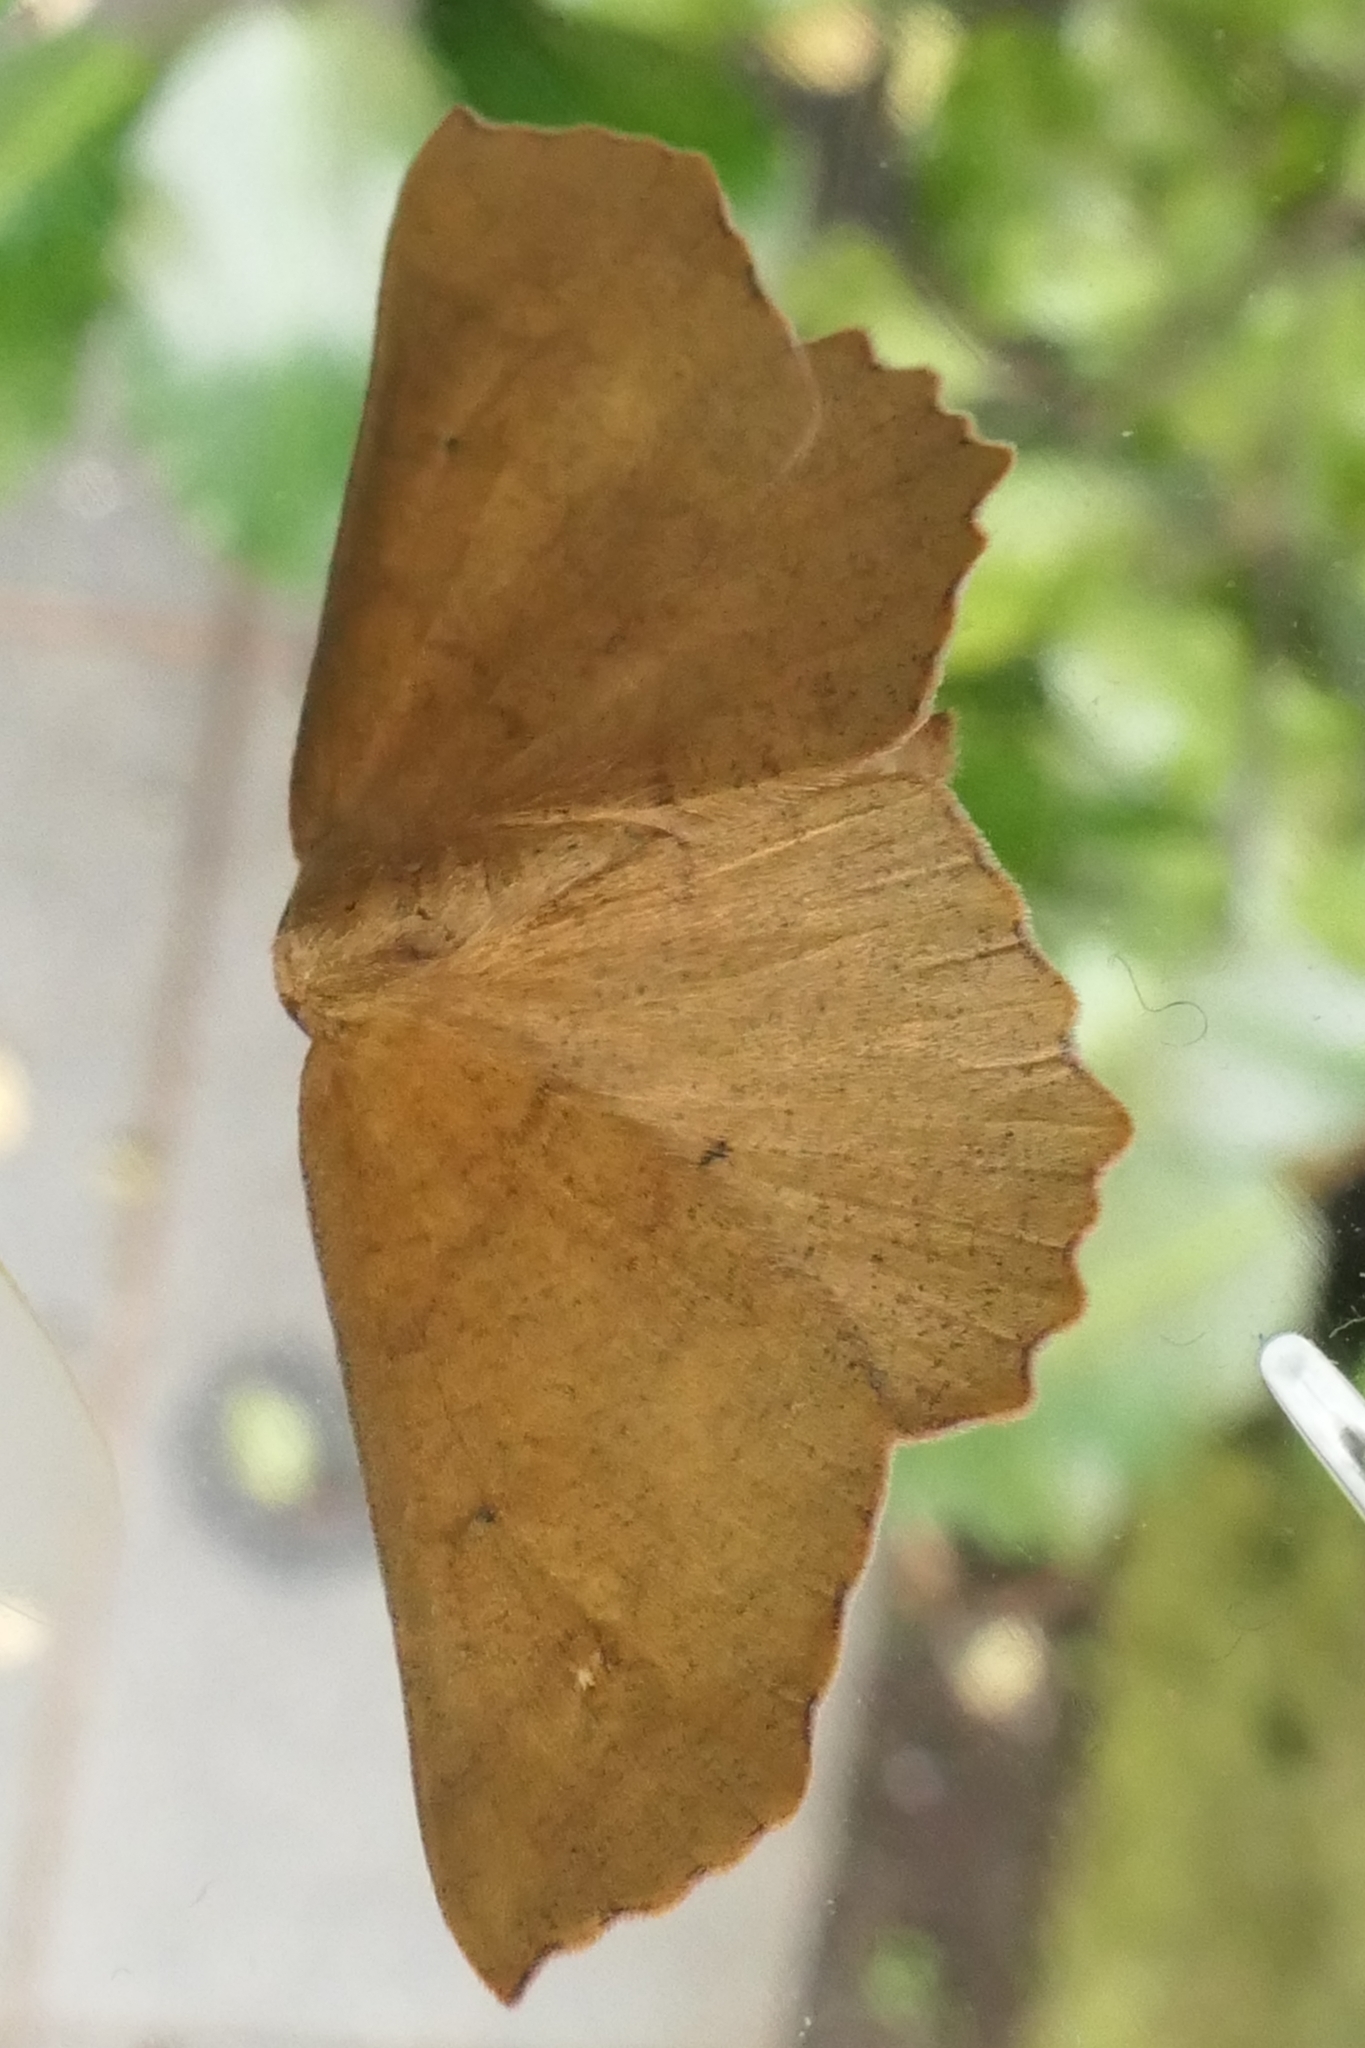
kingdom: Animalia
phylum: Arthropoda
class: Insecta
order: Lepidoptera
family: Geometridae
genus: Xyridacma
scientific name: Xyridacma ustaria
